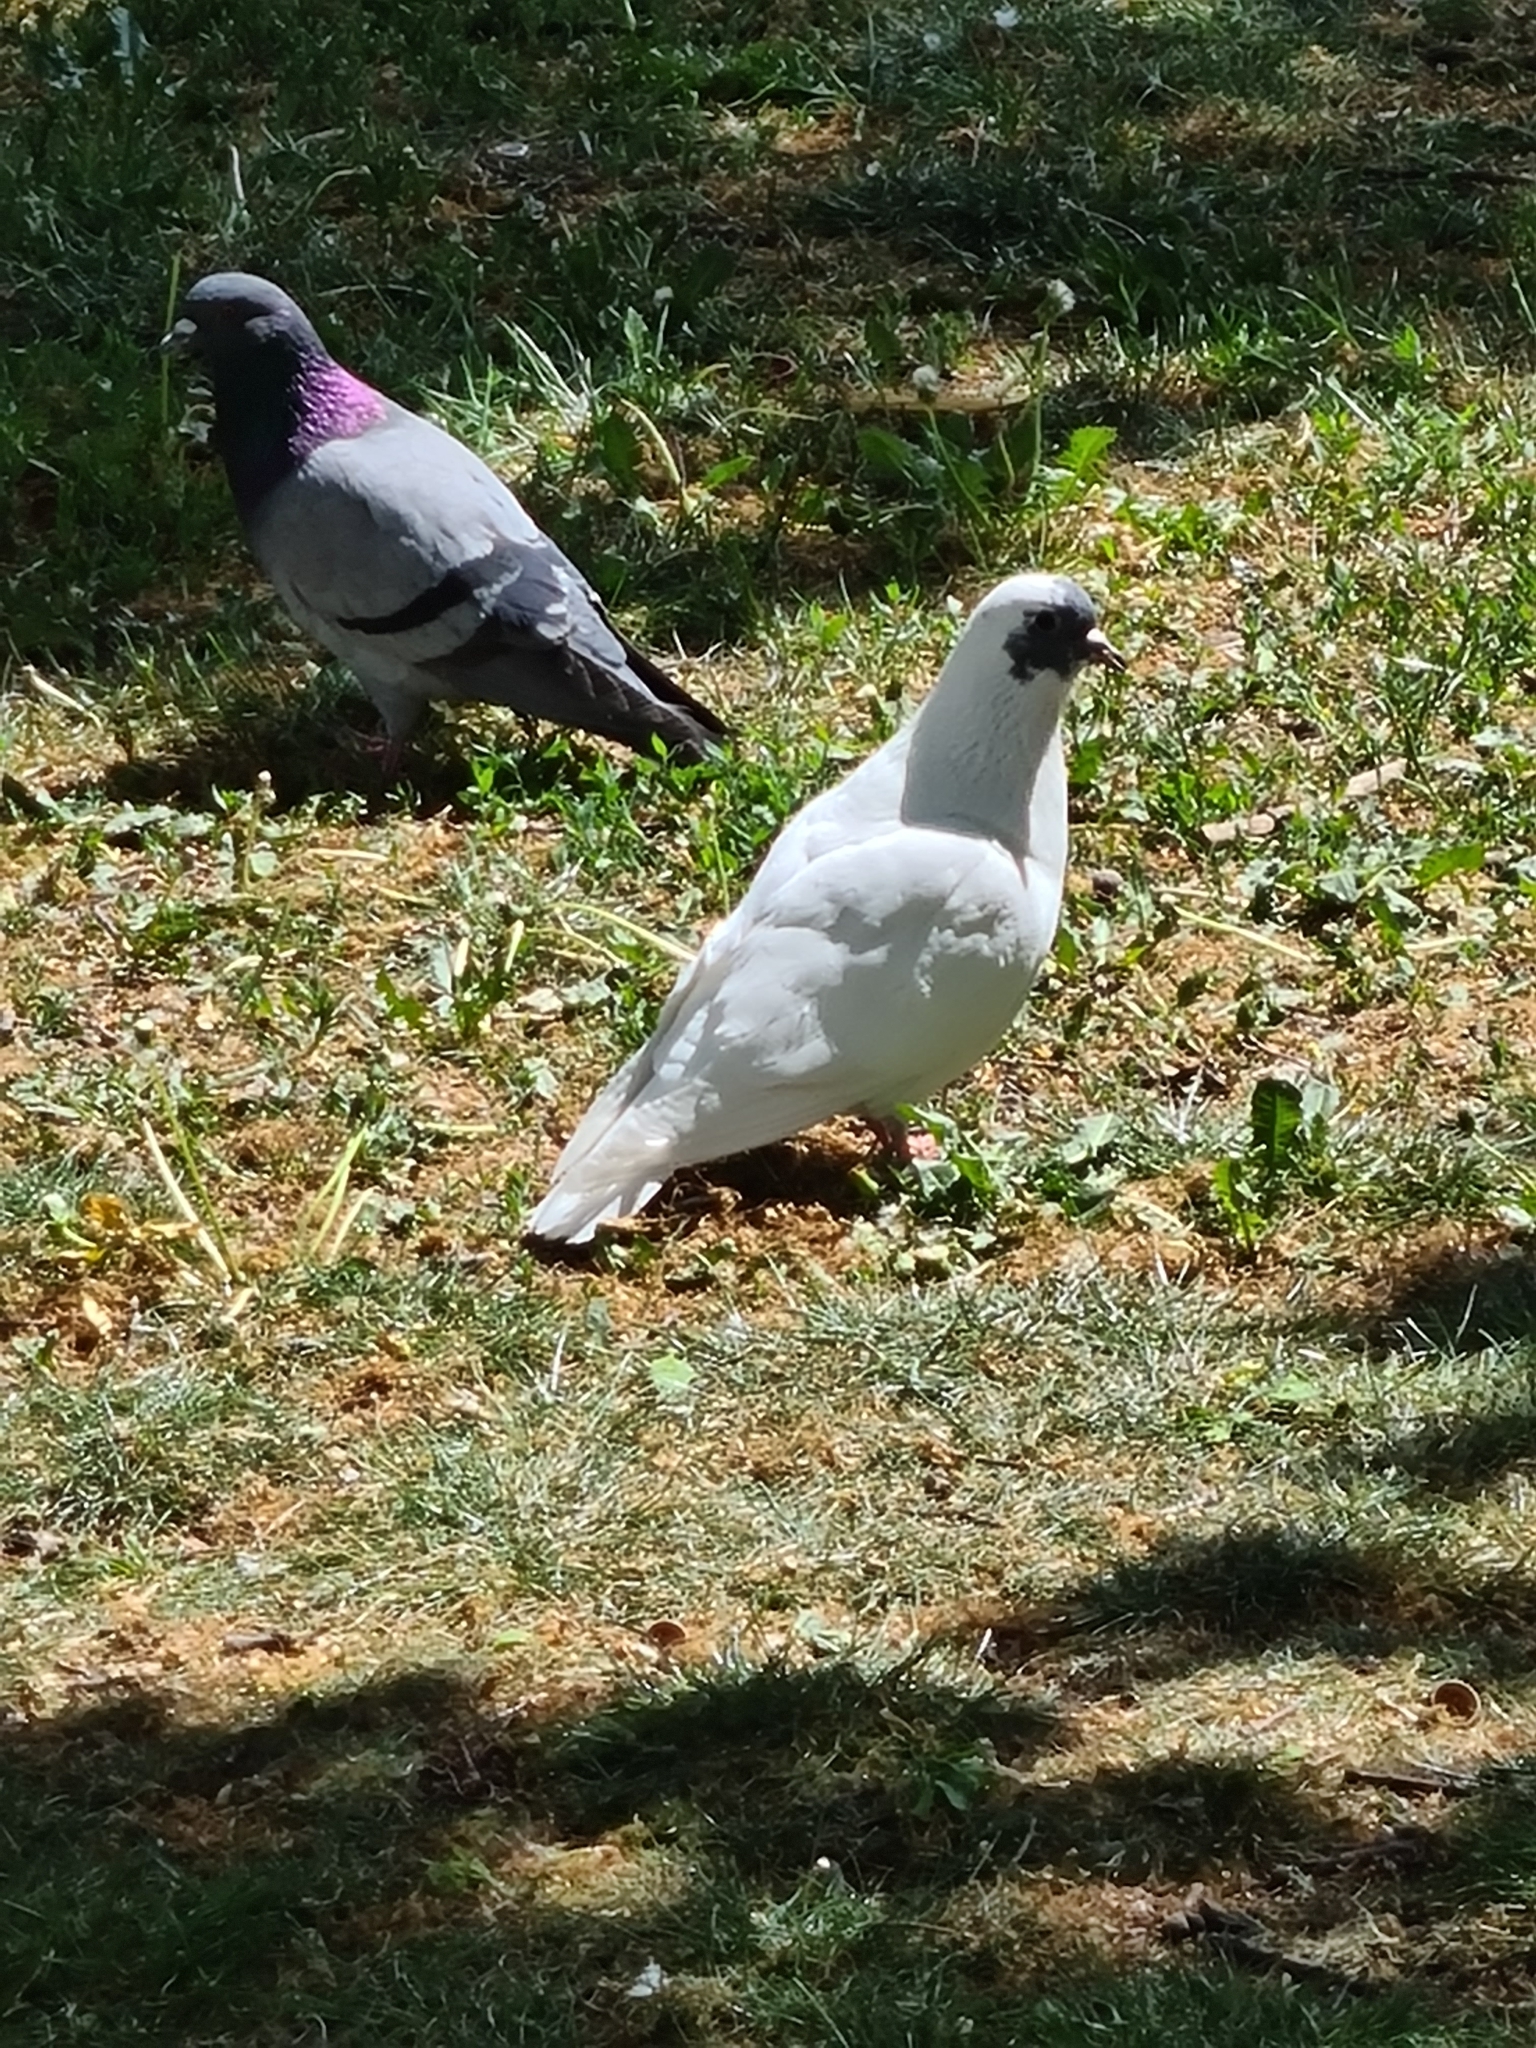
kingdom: Animalia
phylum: Chordata
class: Aves
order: Columbiformes
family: Columbidae
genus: Columba
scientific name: Columba livia
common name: Rock pigeon
